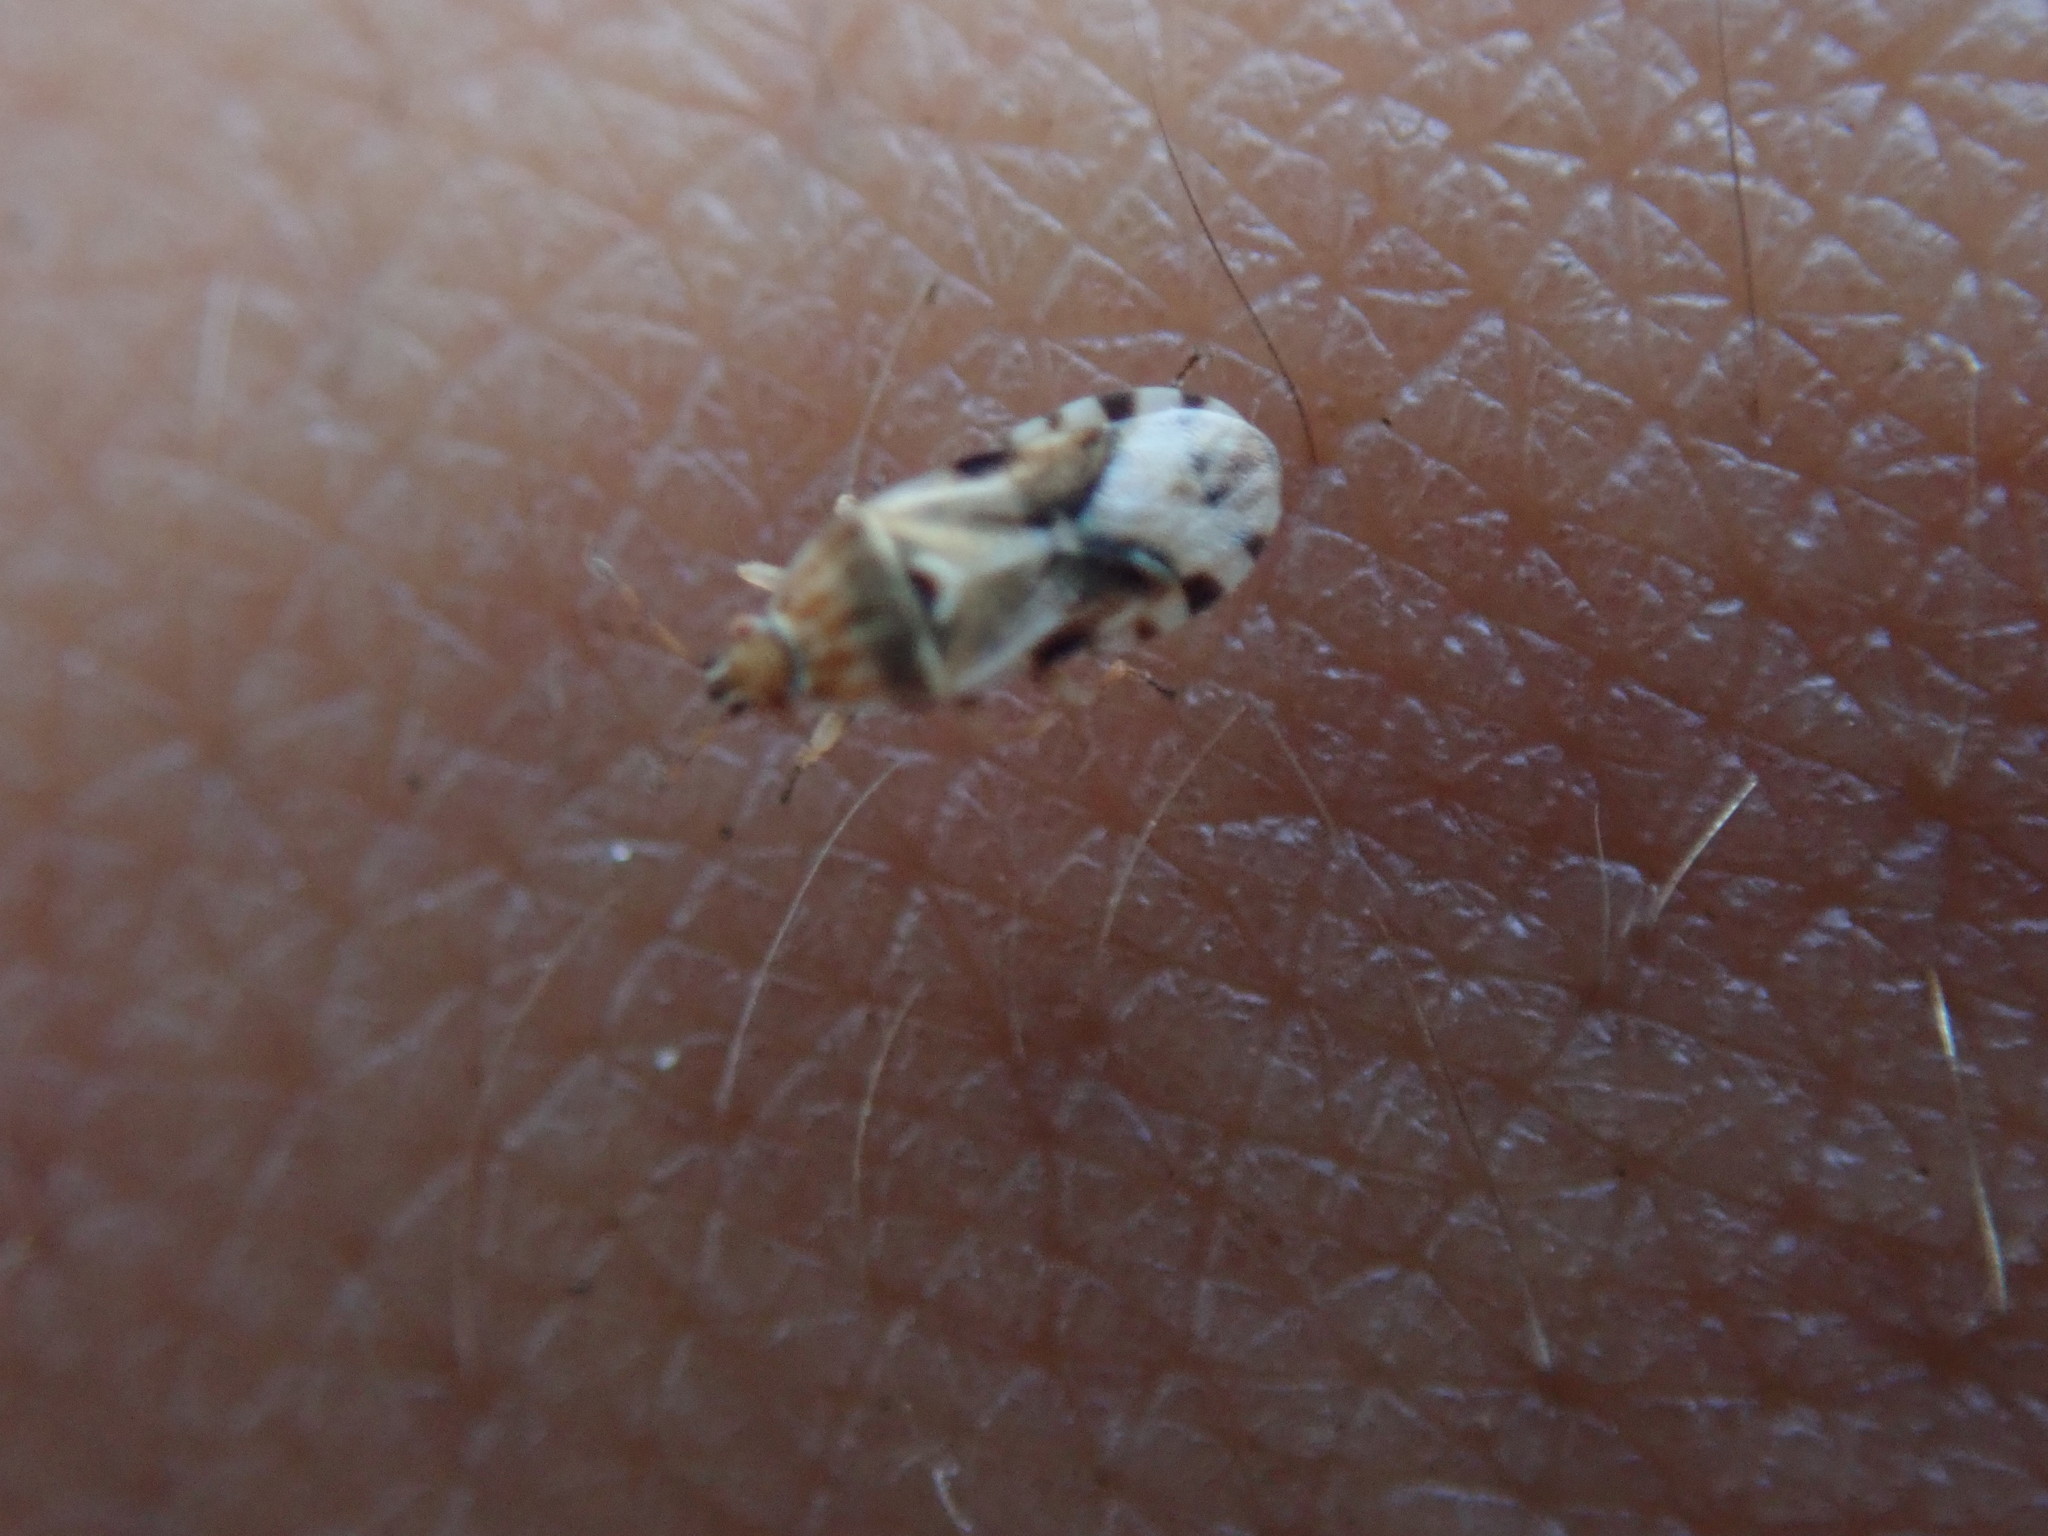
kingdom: Animalia
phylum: Arthropoda
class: Insecta
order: Hemiptera
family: Artheneidae
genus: Artheneis
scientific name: Artheneis foveolata
